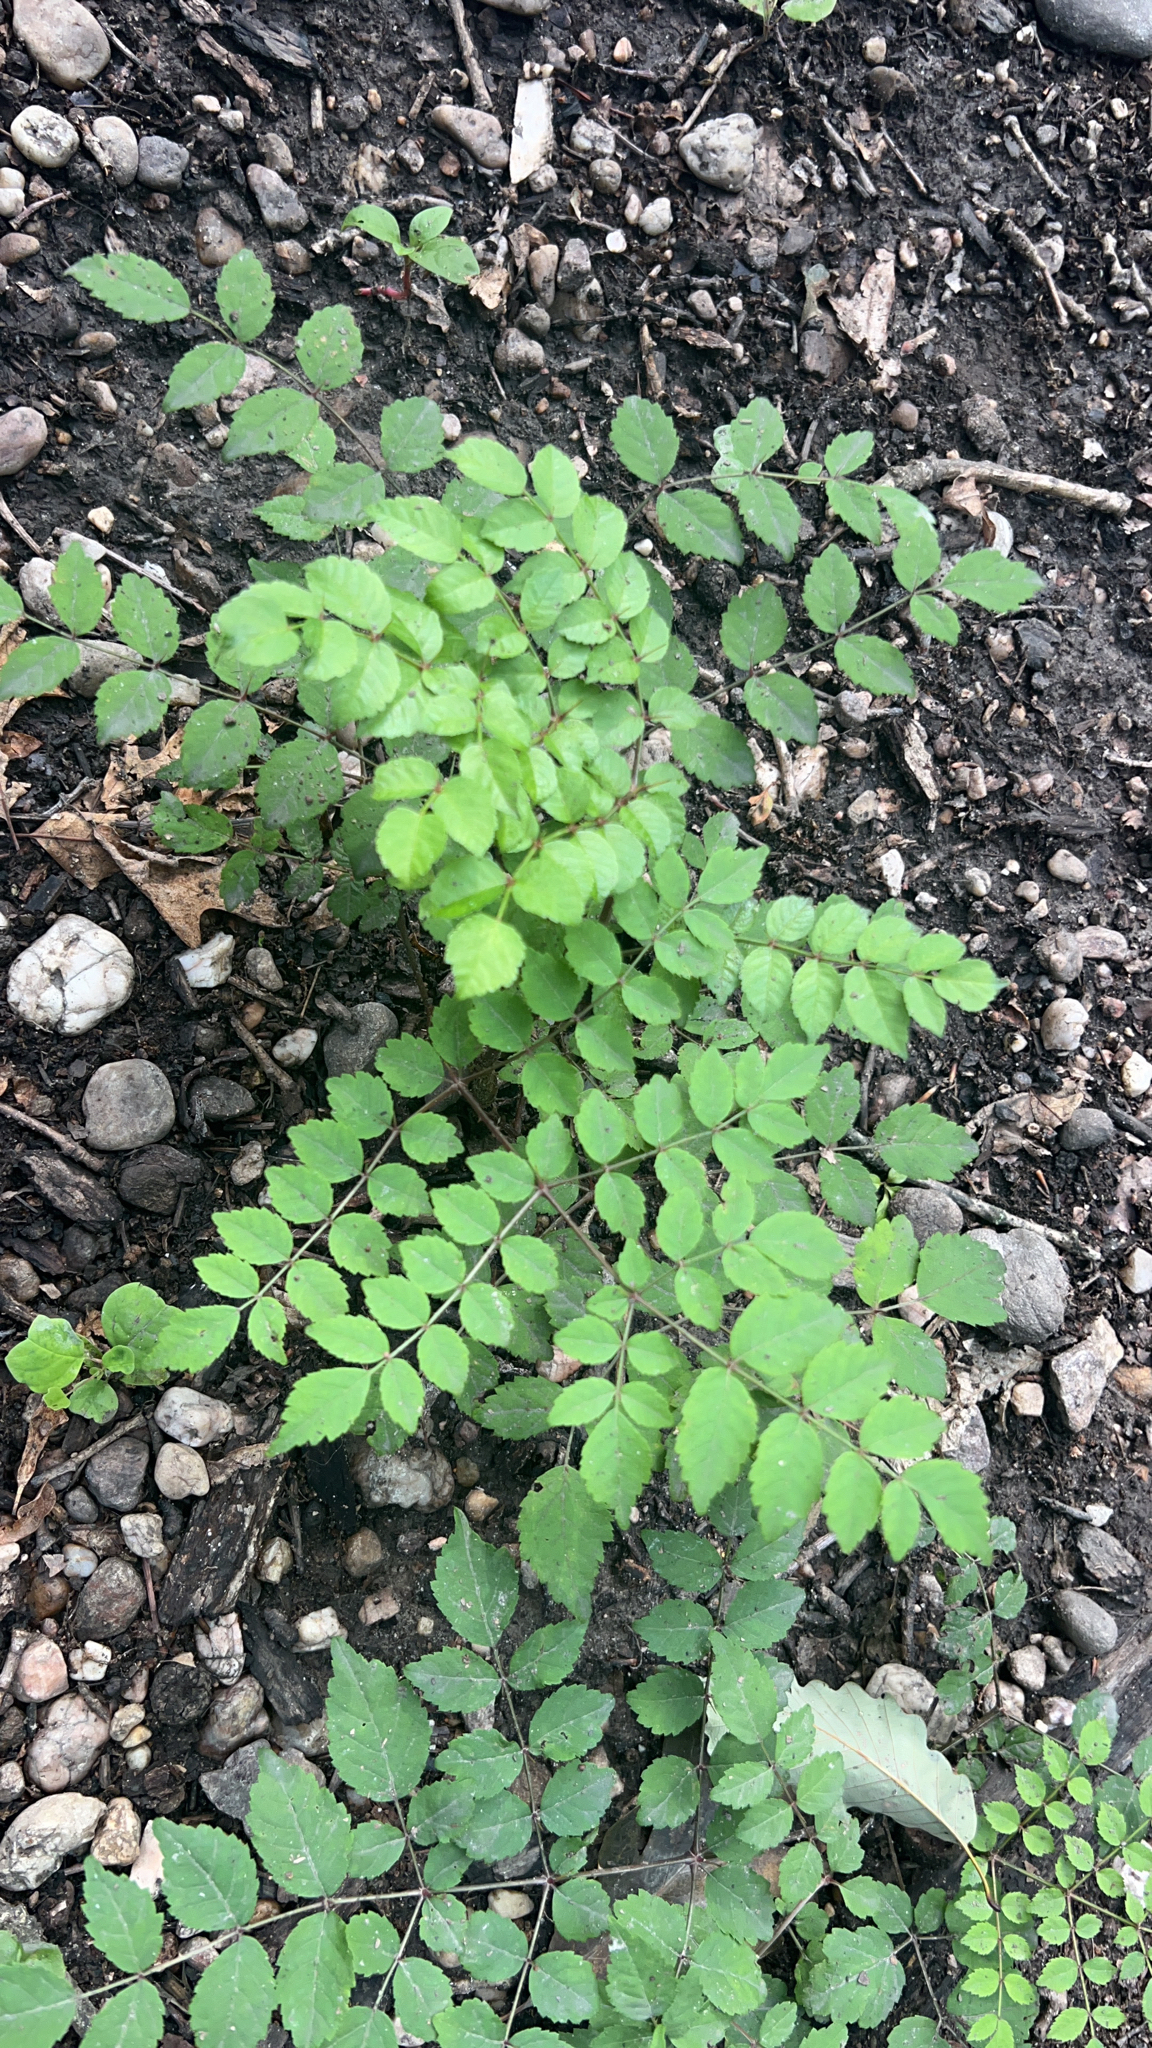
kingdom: Plantae
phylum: Tracheophyta
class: Magnoliopsida
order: Apiales
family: Araliaceae
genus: Aralia
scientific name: Aralia elata
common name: Japanese angelica-tree
